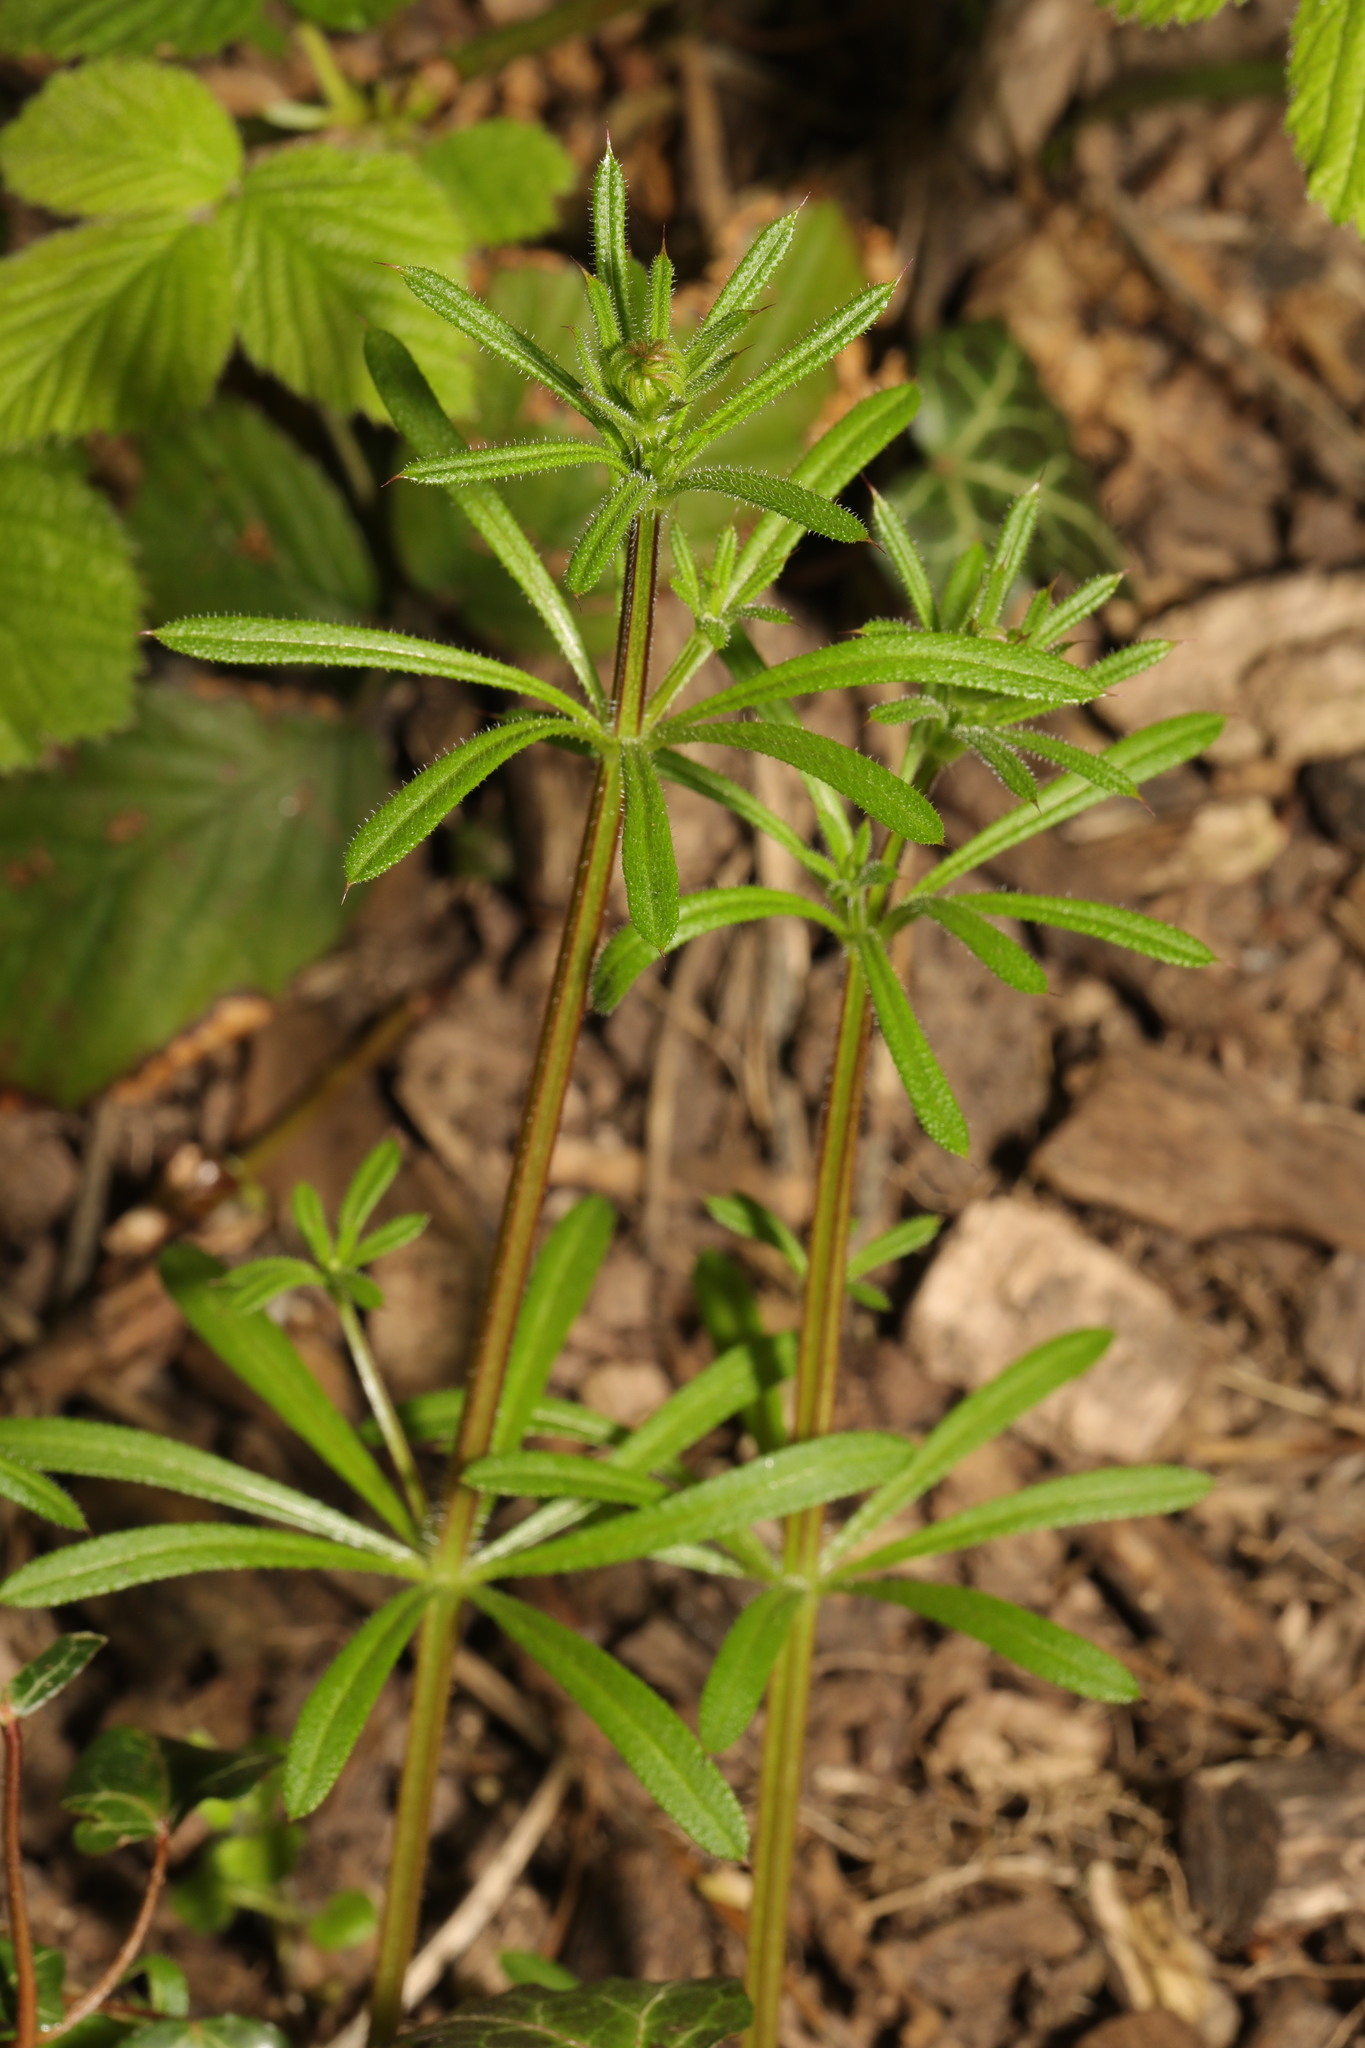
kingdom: Plantae
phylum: Tracheophyta
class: Magnoliopsida
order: Gentianales
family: Rubiaceae
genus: Galium
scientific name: Galium aparine
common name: Cleavers
